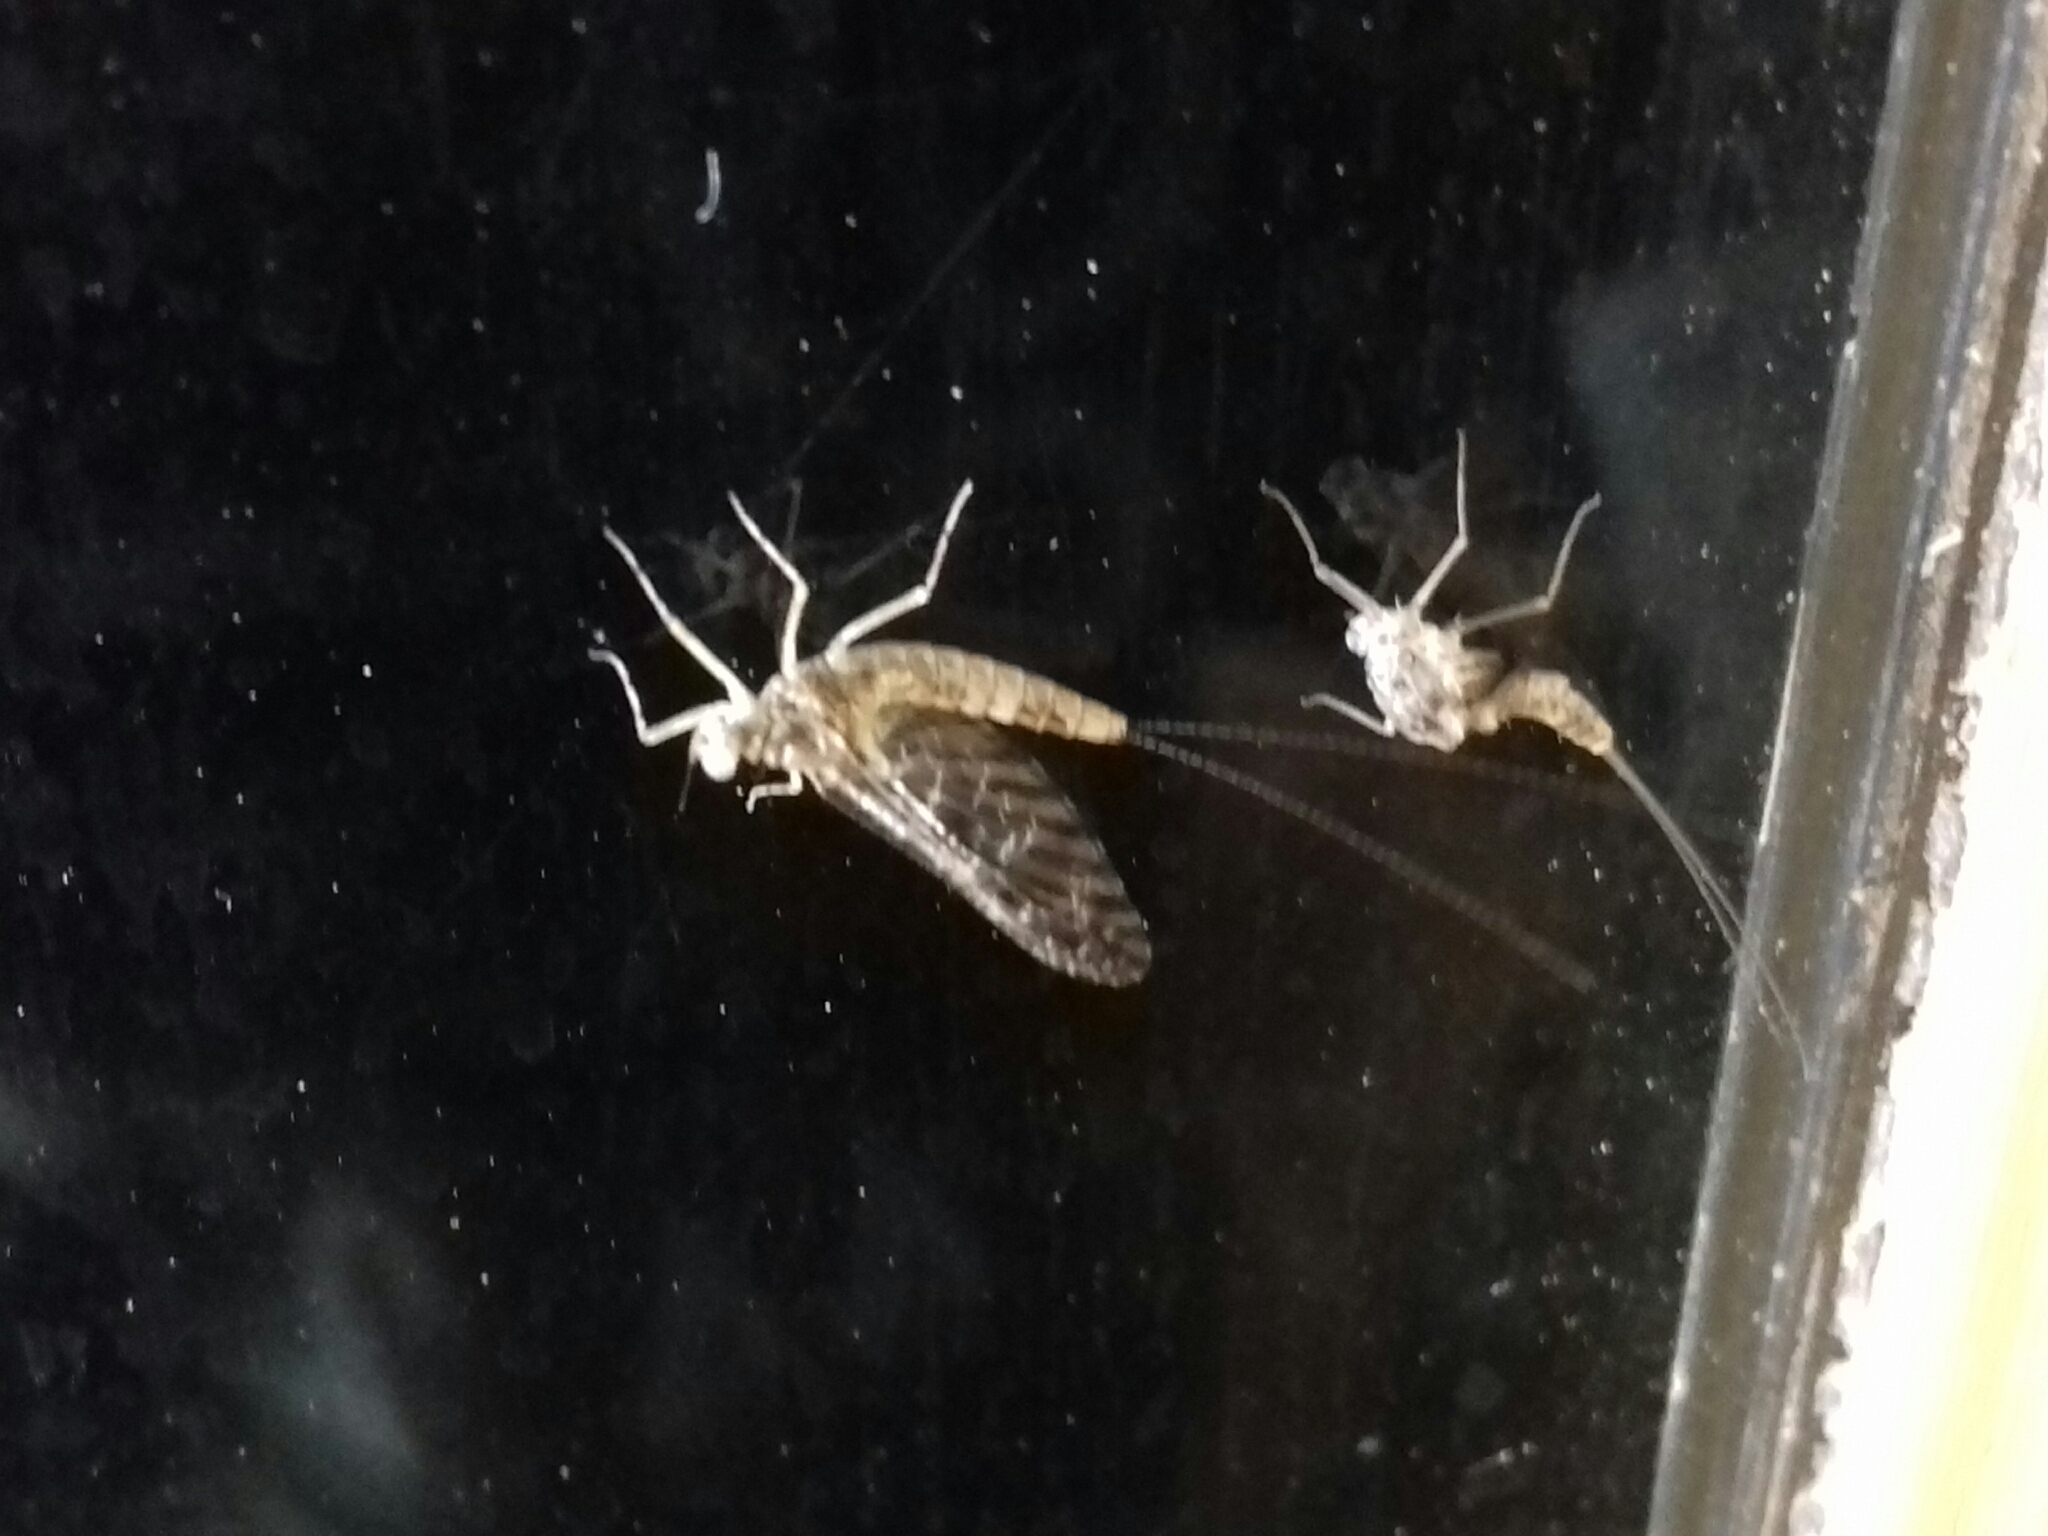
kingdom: Animalia
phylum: Arthropoda
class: Insecta
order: Ephemeroptera
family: Baetidae
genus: Callibaetis
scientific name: Callibaetis pictus
